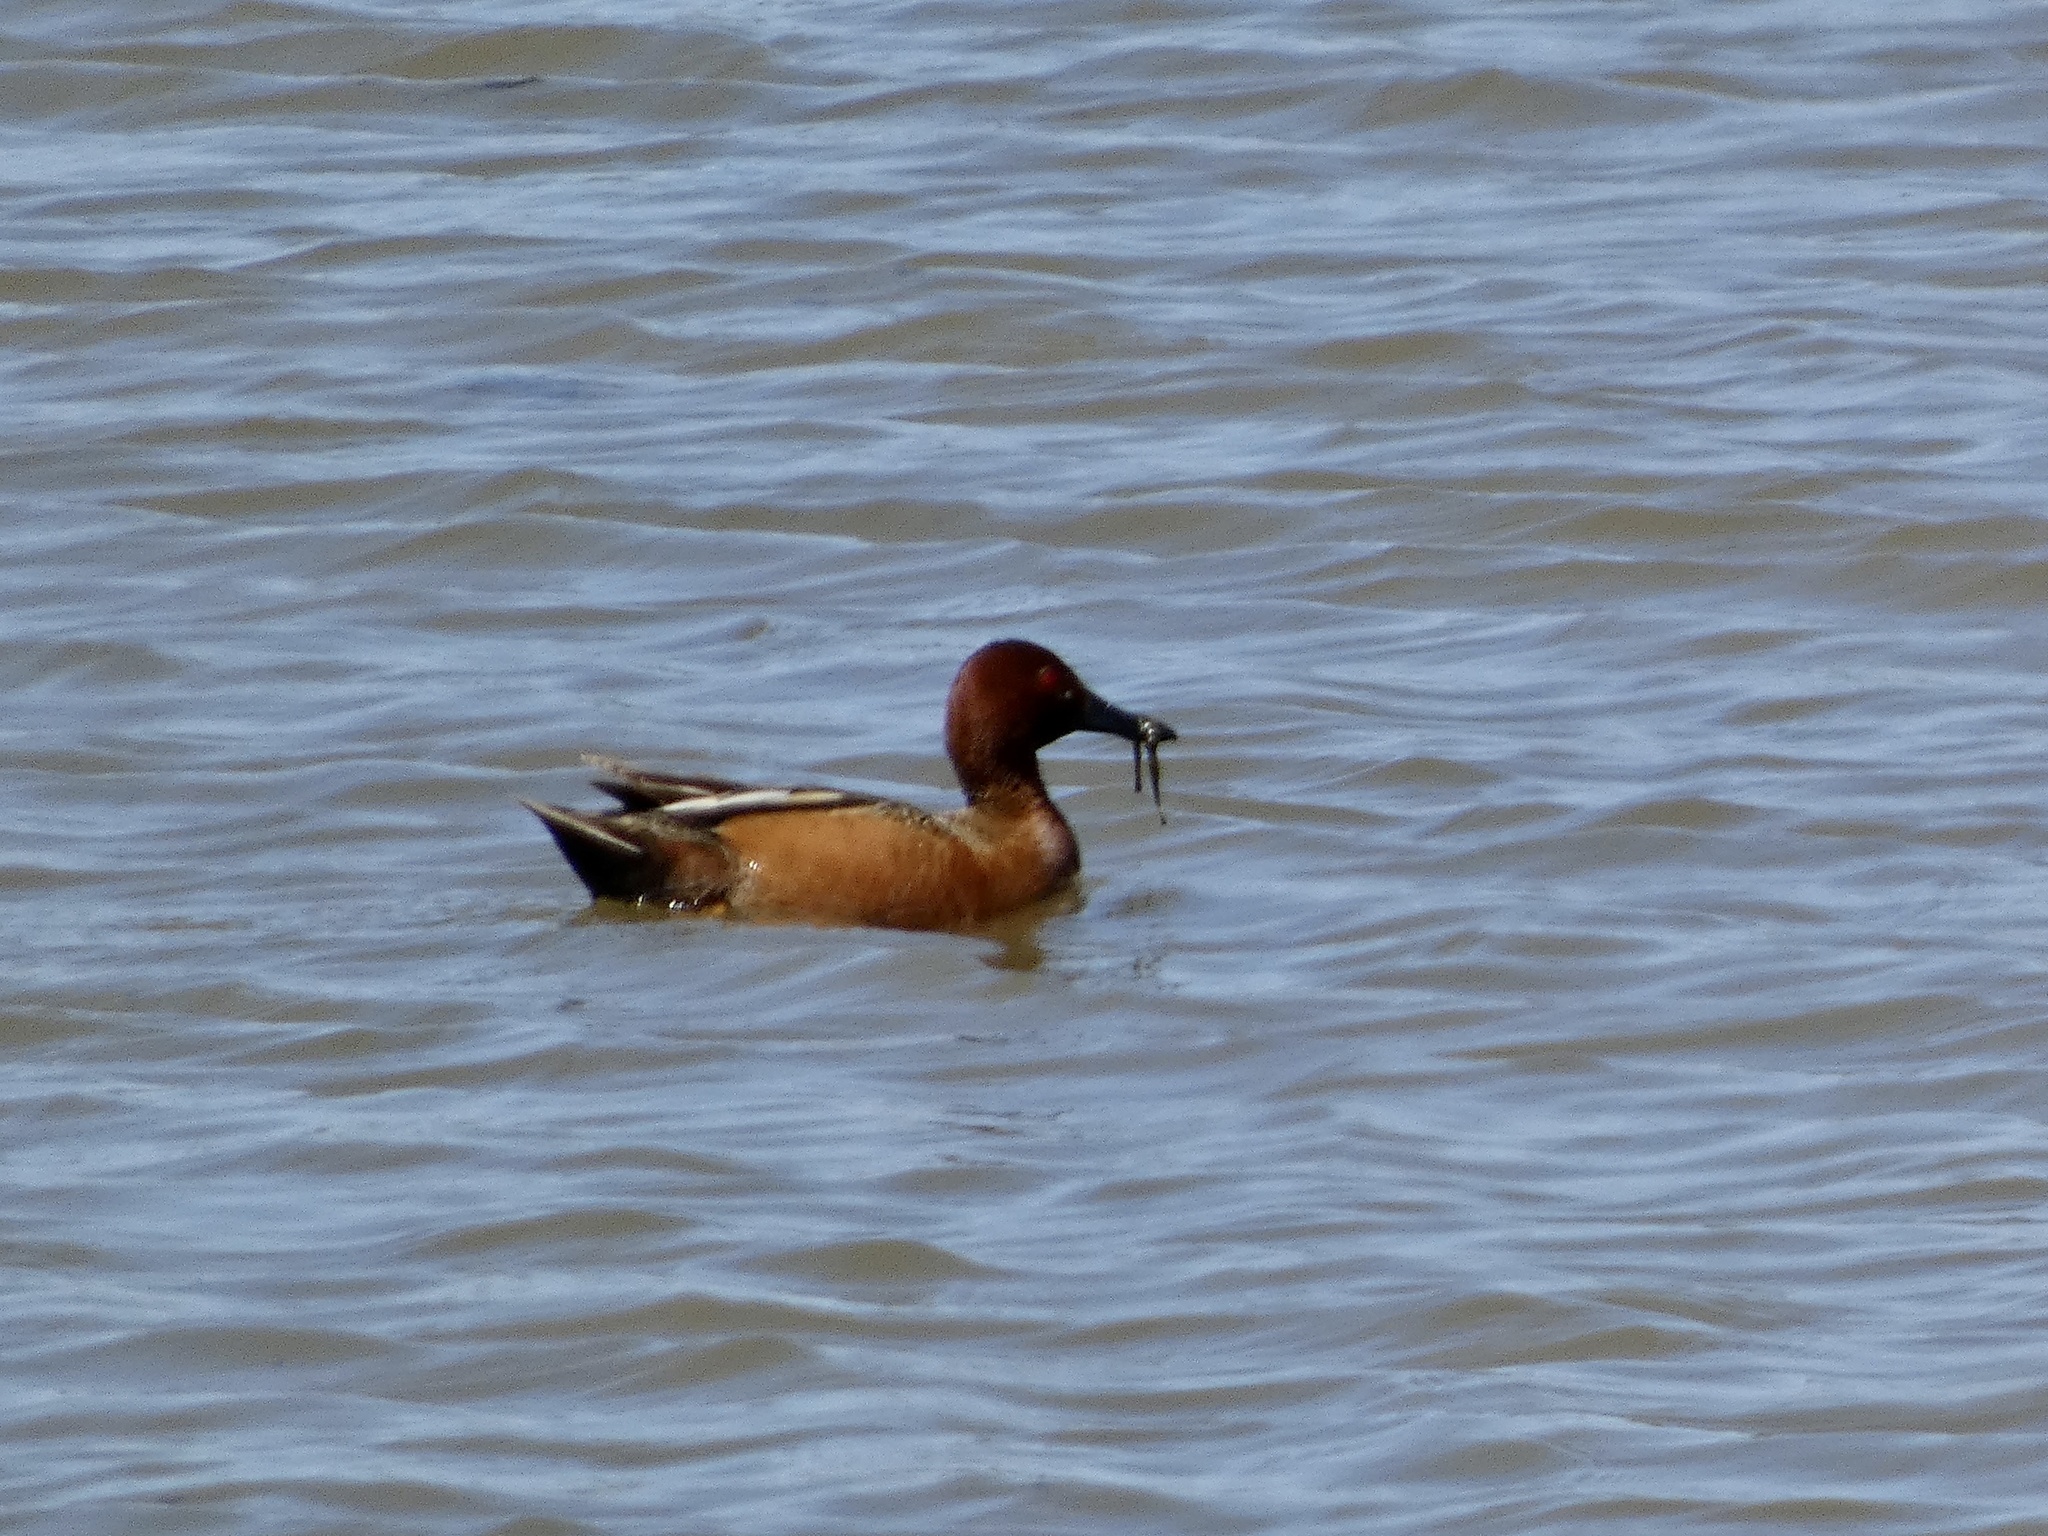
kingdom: Animalia
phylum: Chordata
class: Aves
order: Anseriformes
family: Anatidae
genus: Spatula
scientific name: Spatula cyanoptera
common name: Cinnamon teal
